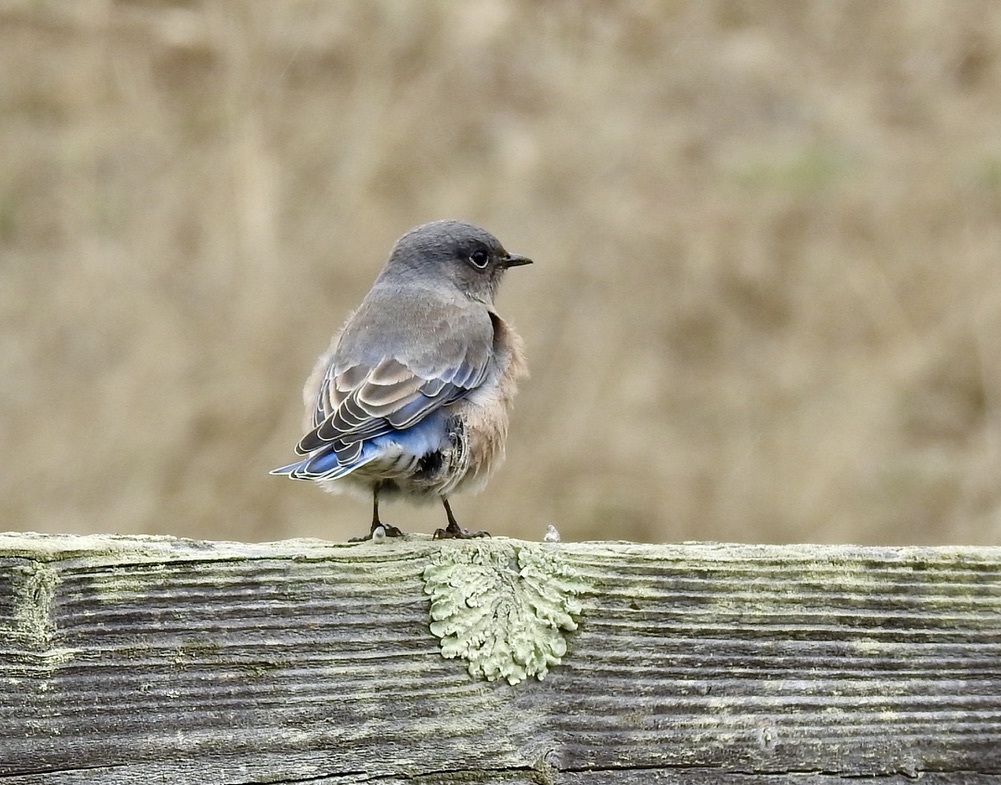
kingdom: Animalia
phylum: Chordata
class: Aves
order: Passeriformes
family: Turdidae
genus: Sialia
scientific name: Sialia mexicana
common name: Western bluebird
